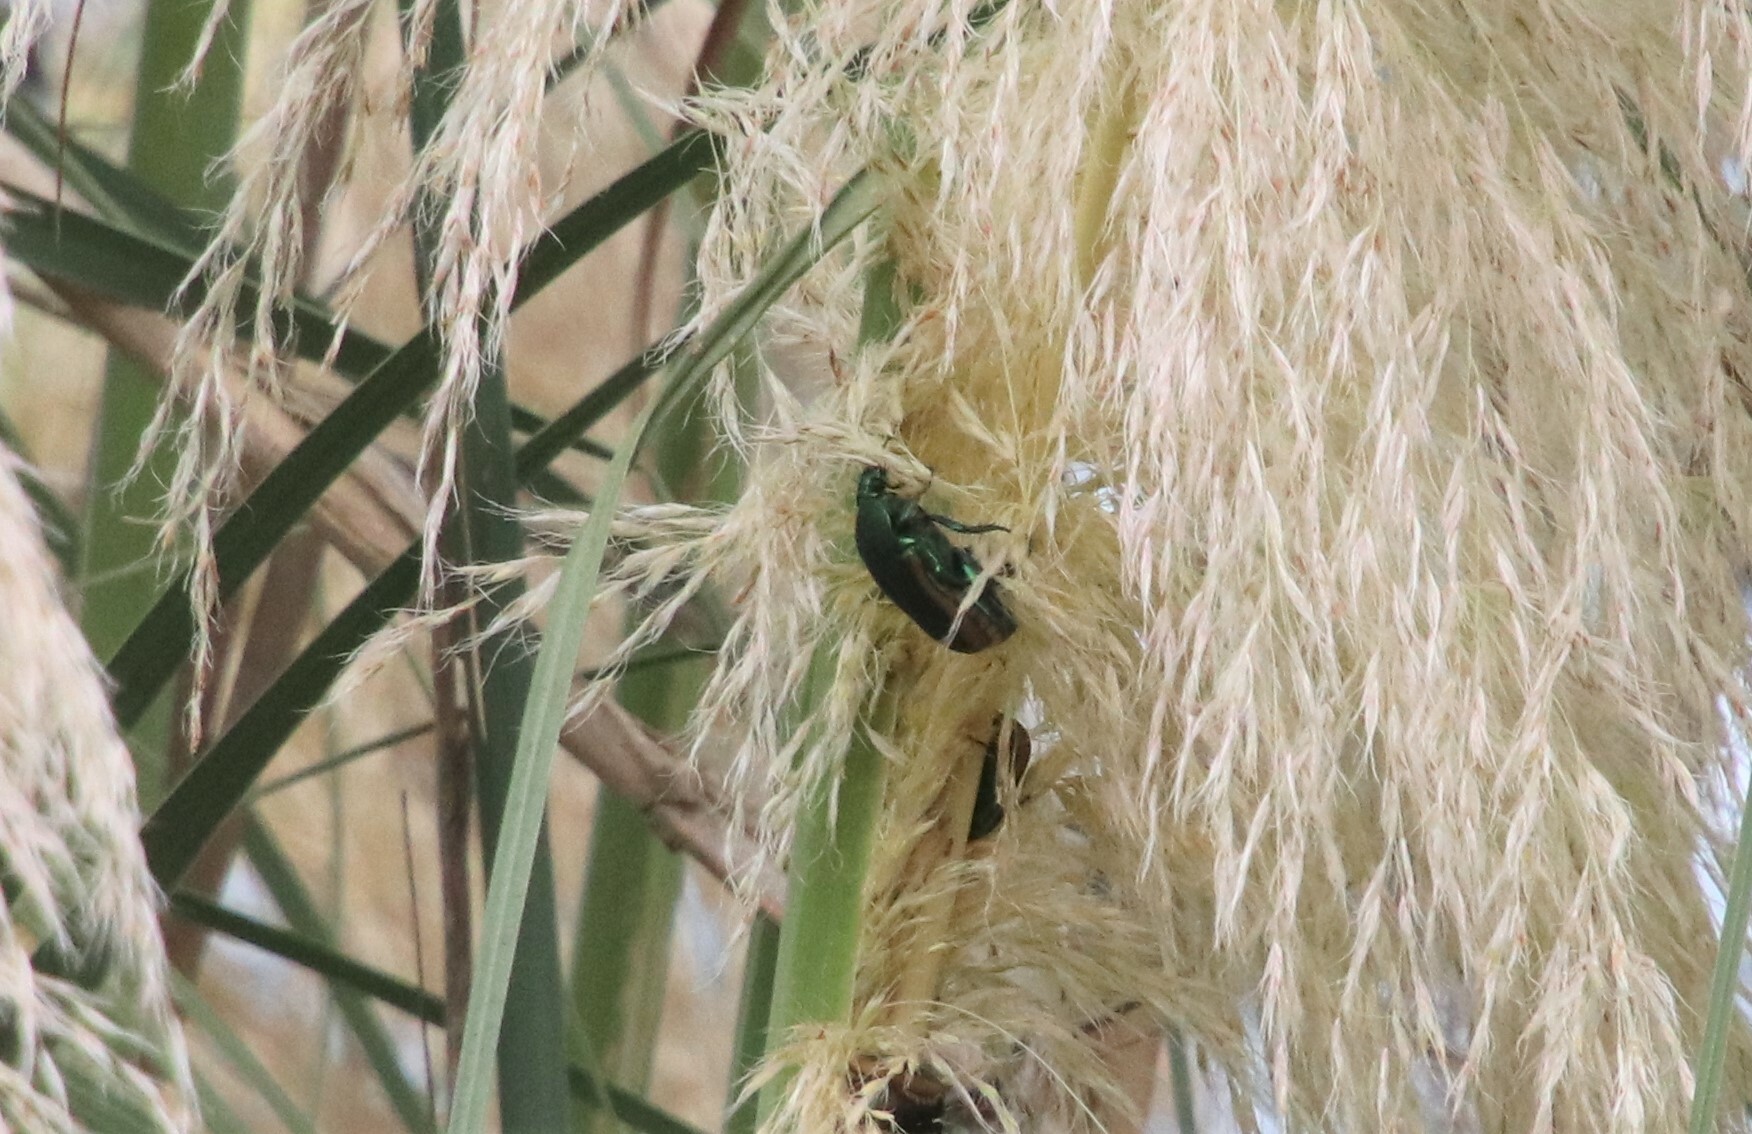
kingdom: Animalia
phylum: Arthropoda
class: Insecta
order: Coleoptera
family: Scarabaeidae
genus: Cotinis
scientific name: Cotinis mutabilis
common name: Figeater beetle
